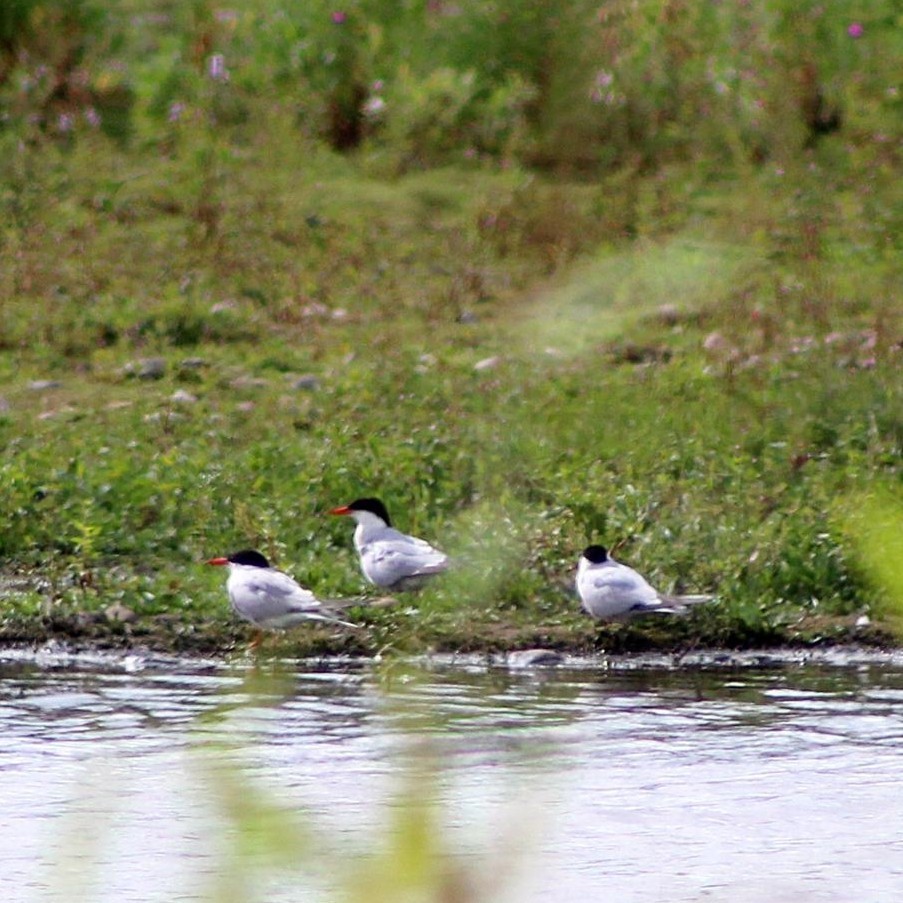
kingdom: Animalia
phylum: Chordata
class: Aves
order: Charadriiformes
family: Laridae
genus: Sterna
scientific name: Sterna hirundo
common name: Common tern
